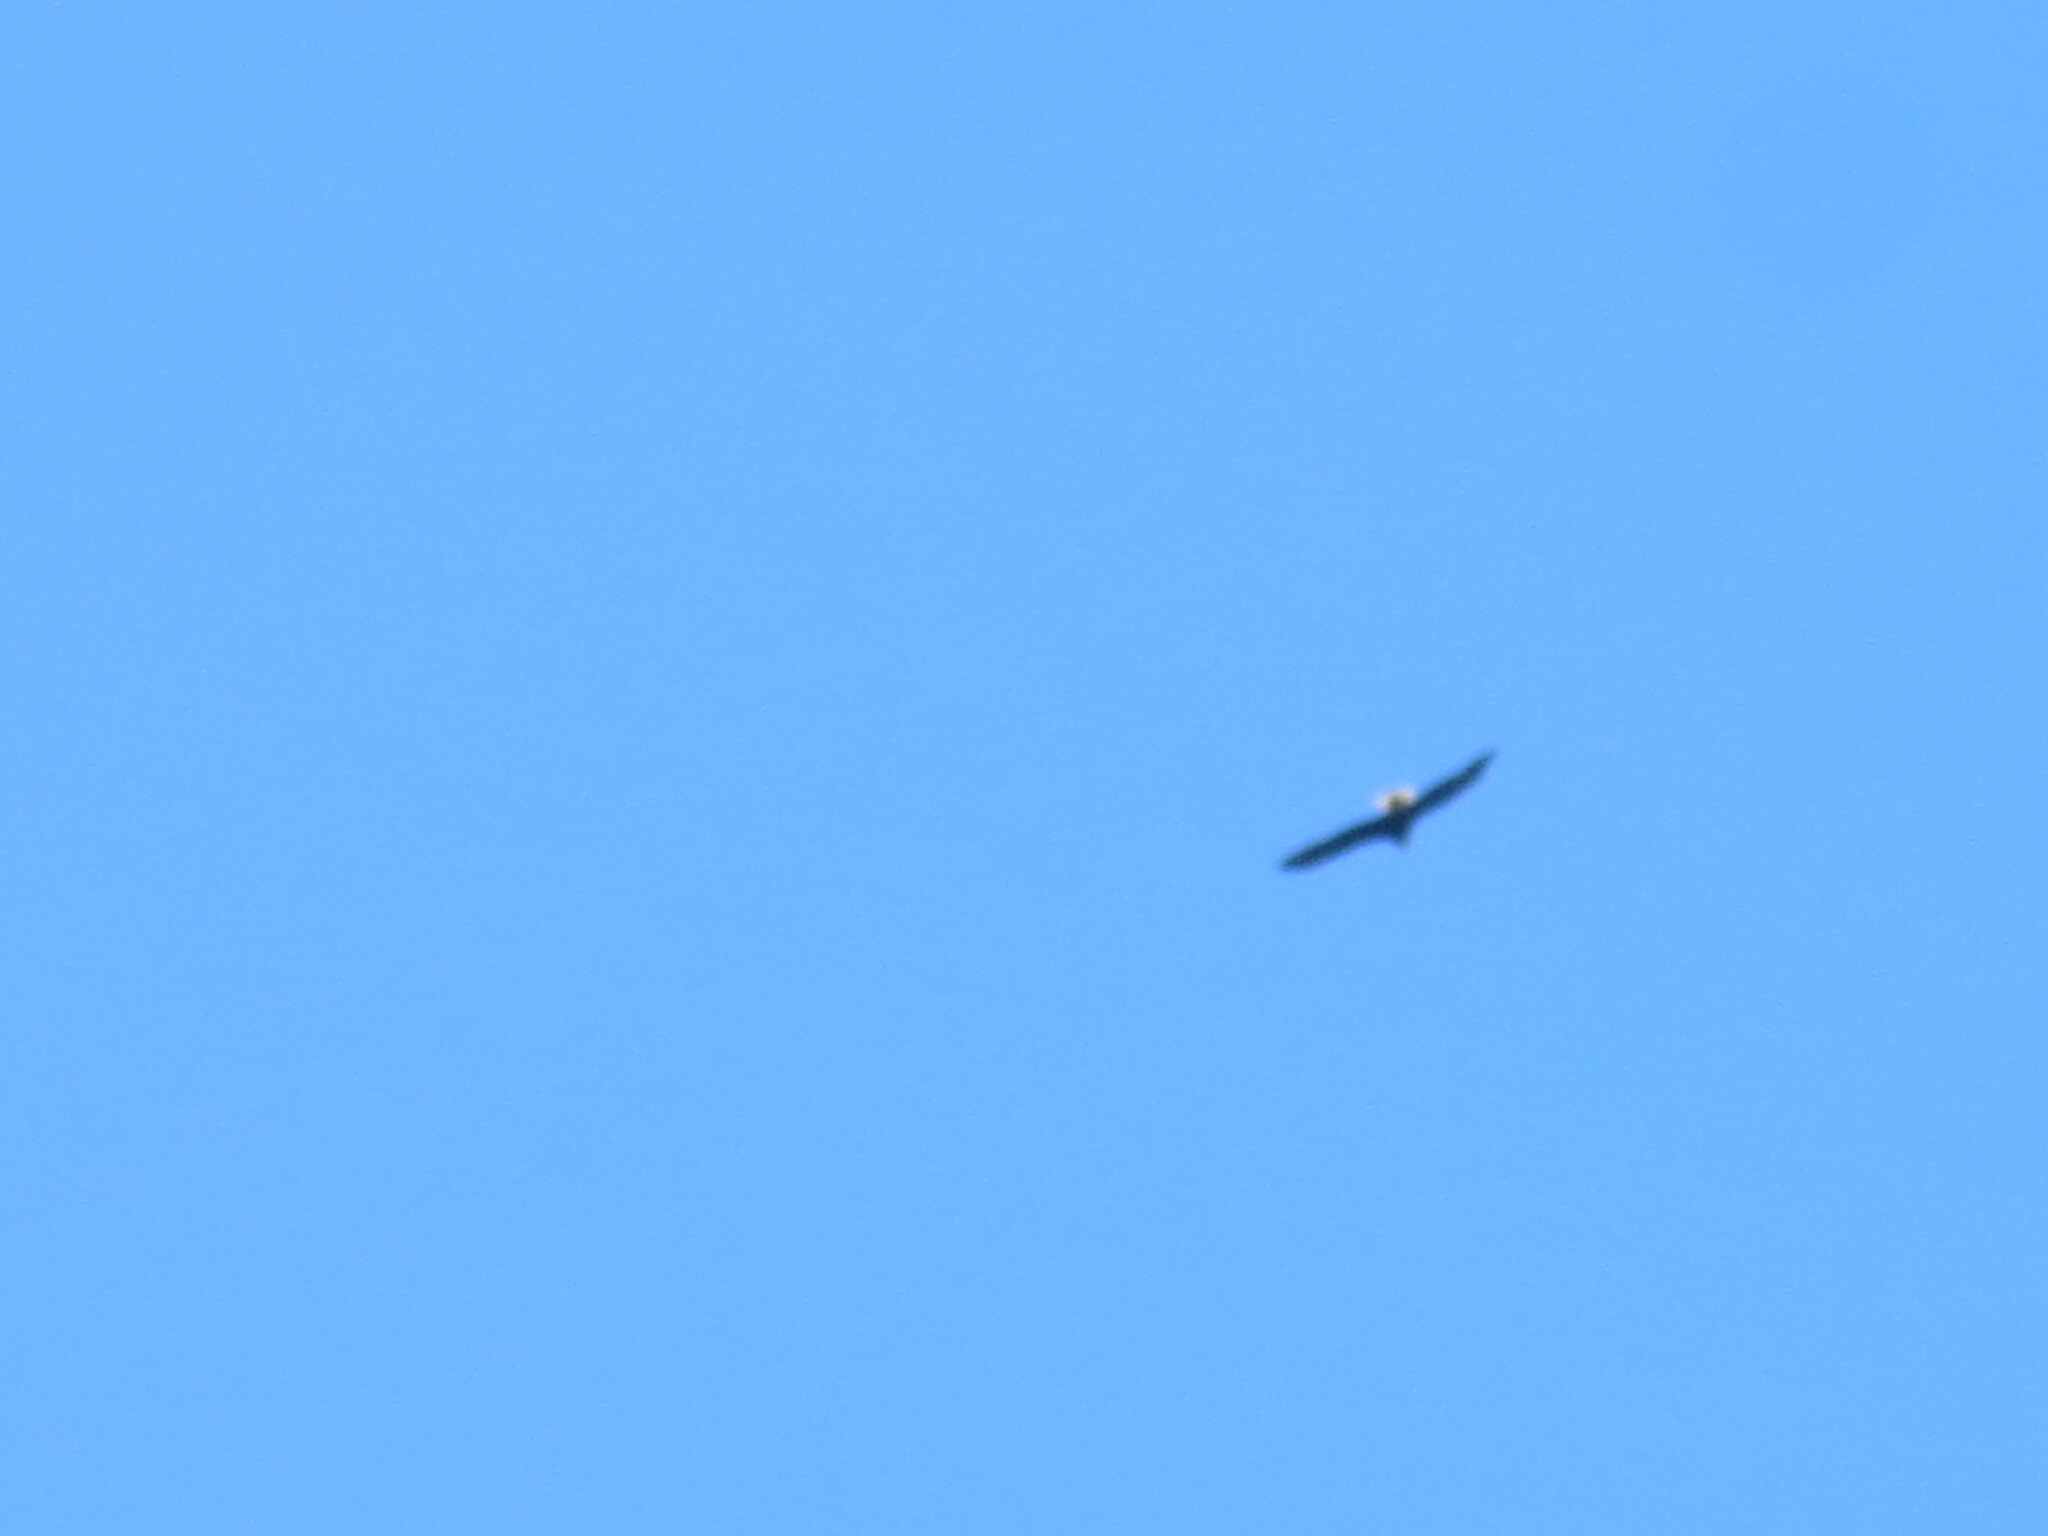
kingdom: Animalia
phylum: Chordata
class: Aves
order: Accipitriformes
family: Accipitridae
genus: Haliaeetus
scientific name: Haliaeetus leucocephalus
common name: Bald eagle
